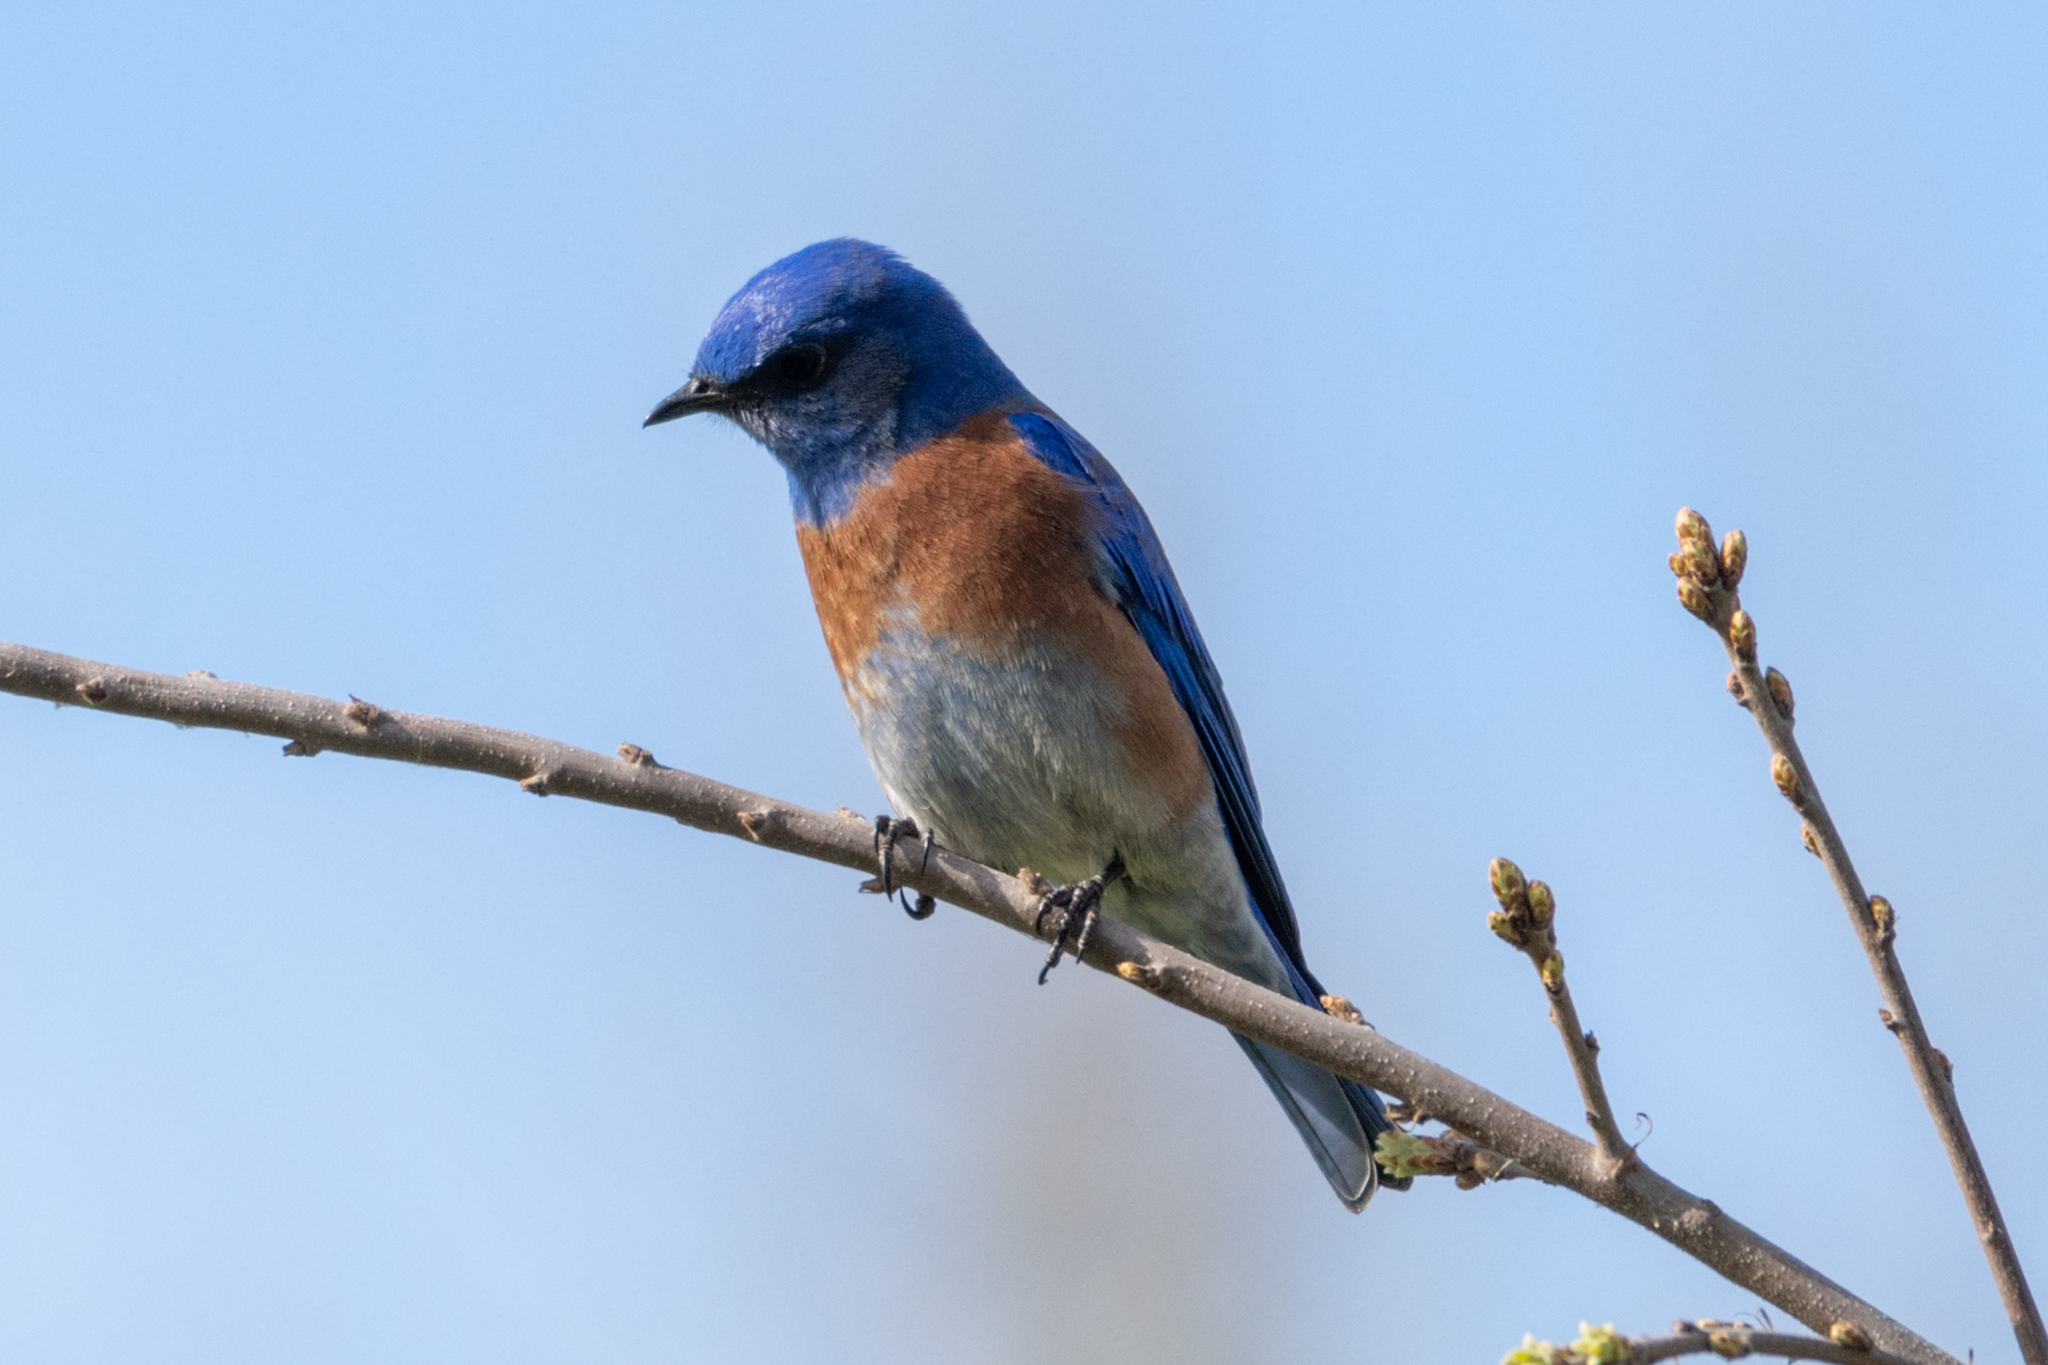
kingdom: Animalia
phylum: Chordata
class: Aves
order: Passeriformes
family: Turdidae
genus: Sialia
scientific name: Sialia mexicana
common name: Western bluebird
